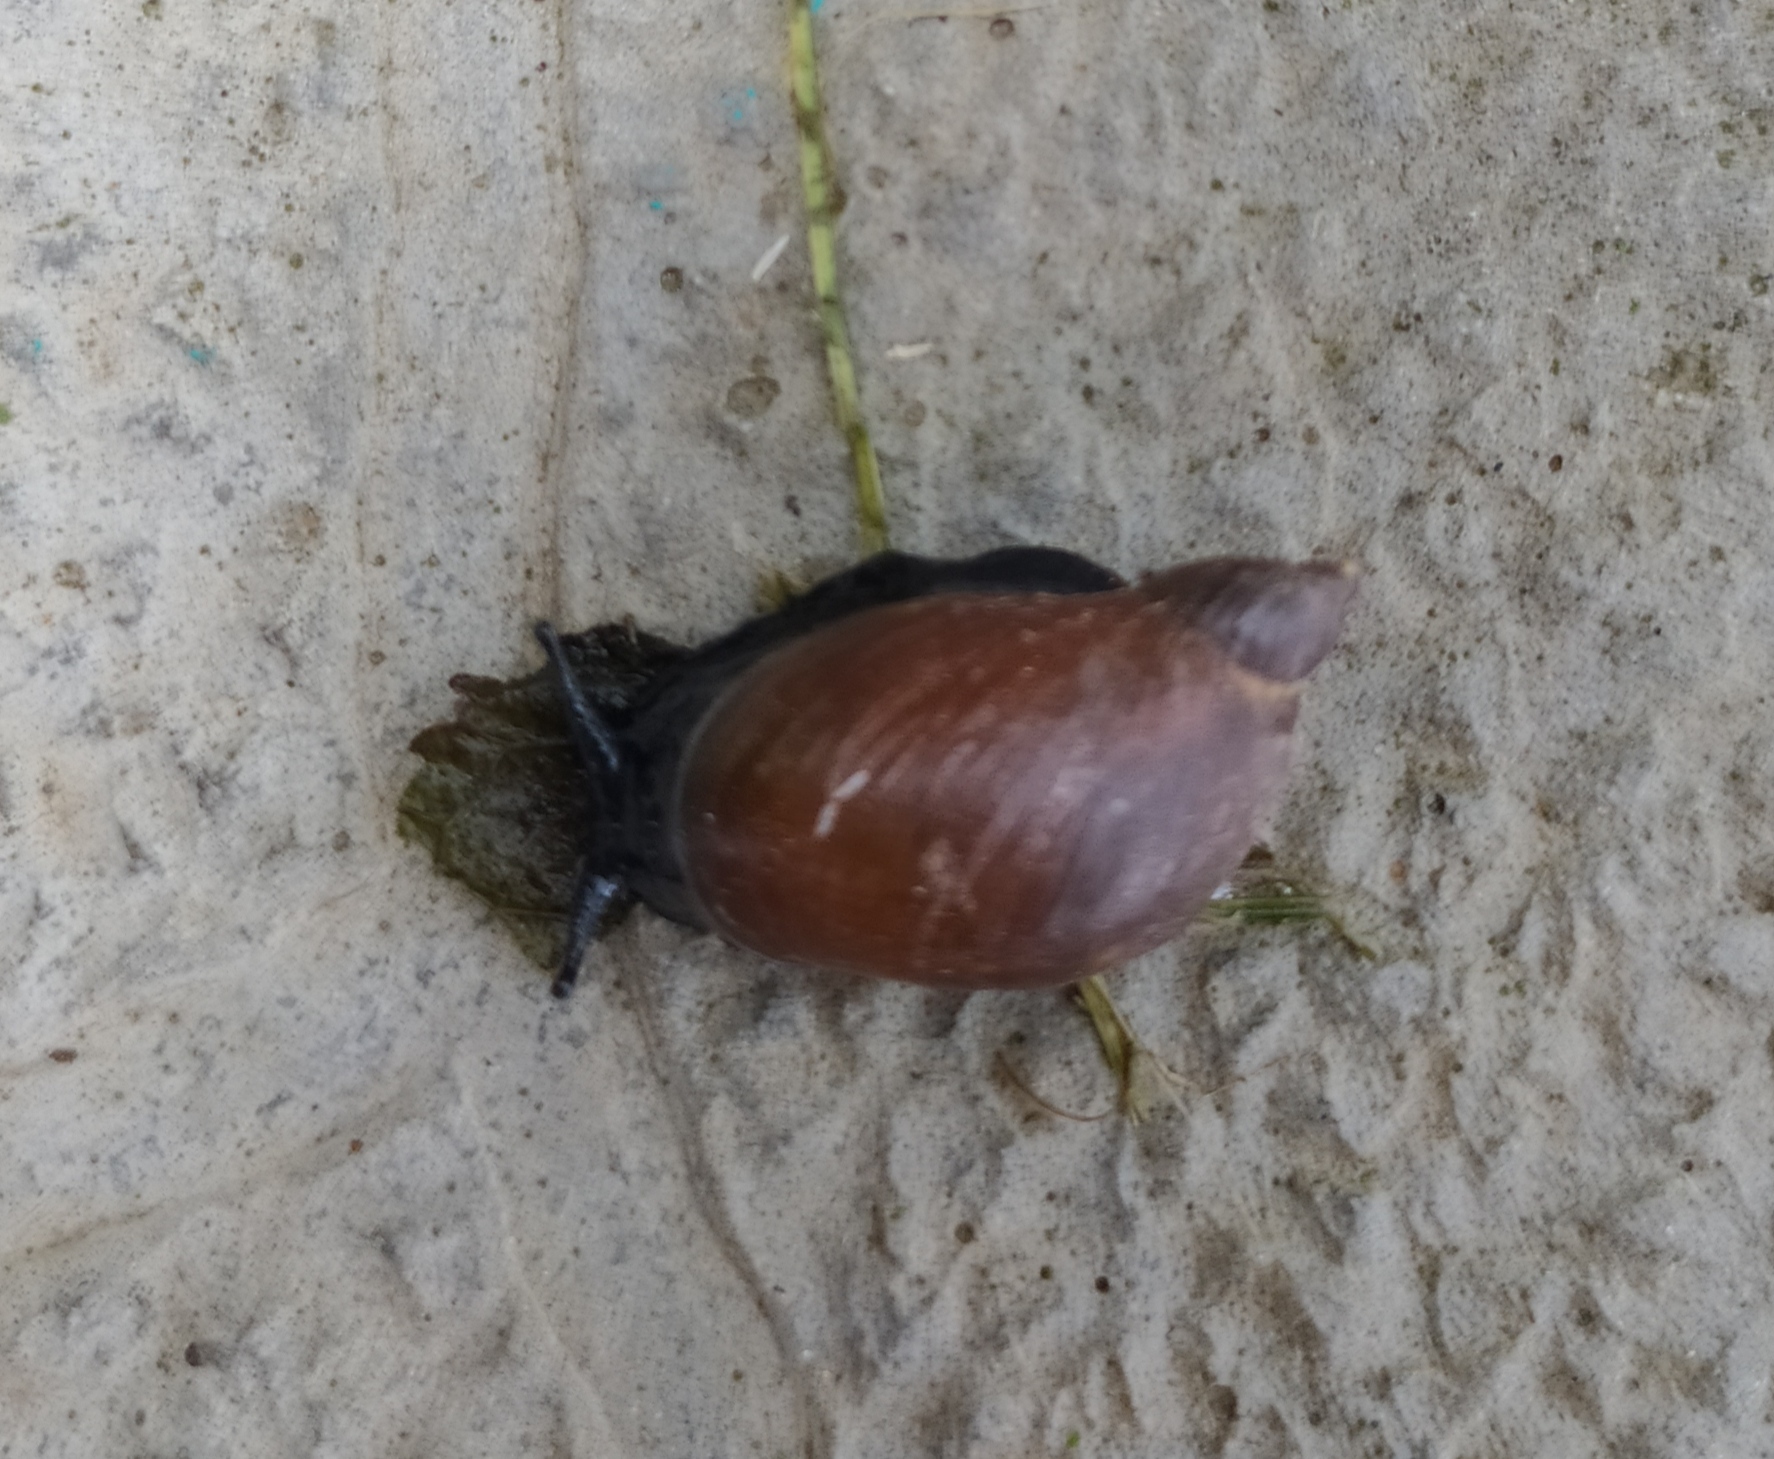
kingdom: Animalia
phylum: Mollusca
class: Gastropoda
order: Stylommatophora
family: Succineidae
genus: Succinea
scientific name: Succinea putris
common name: European ambersnail
